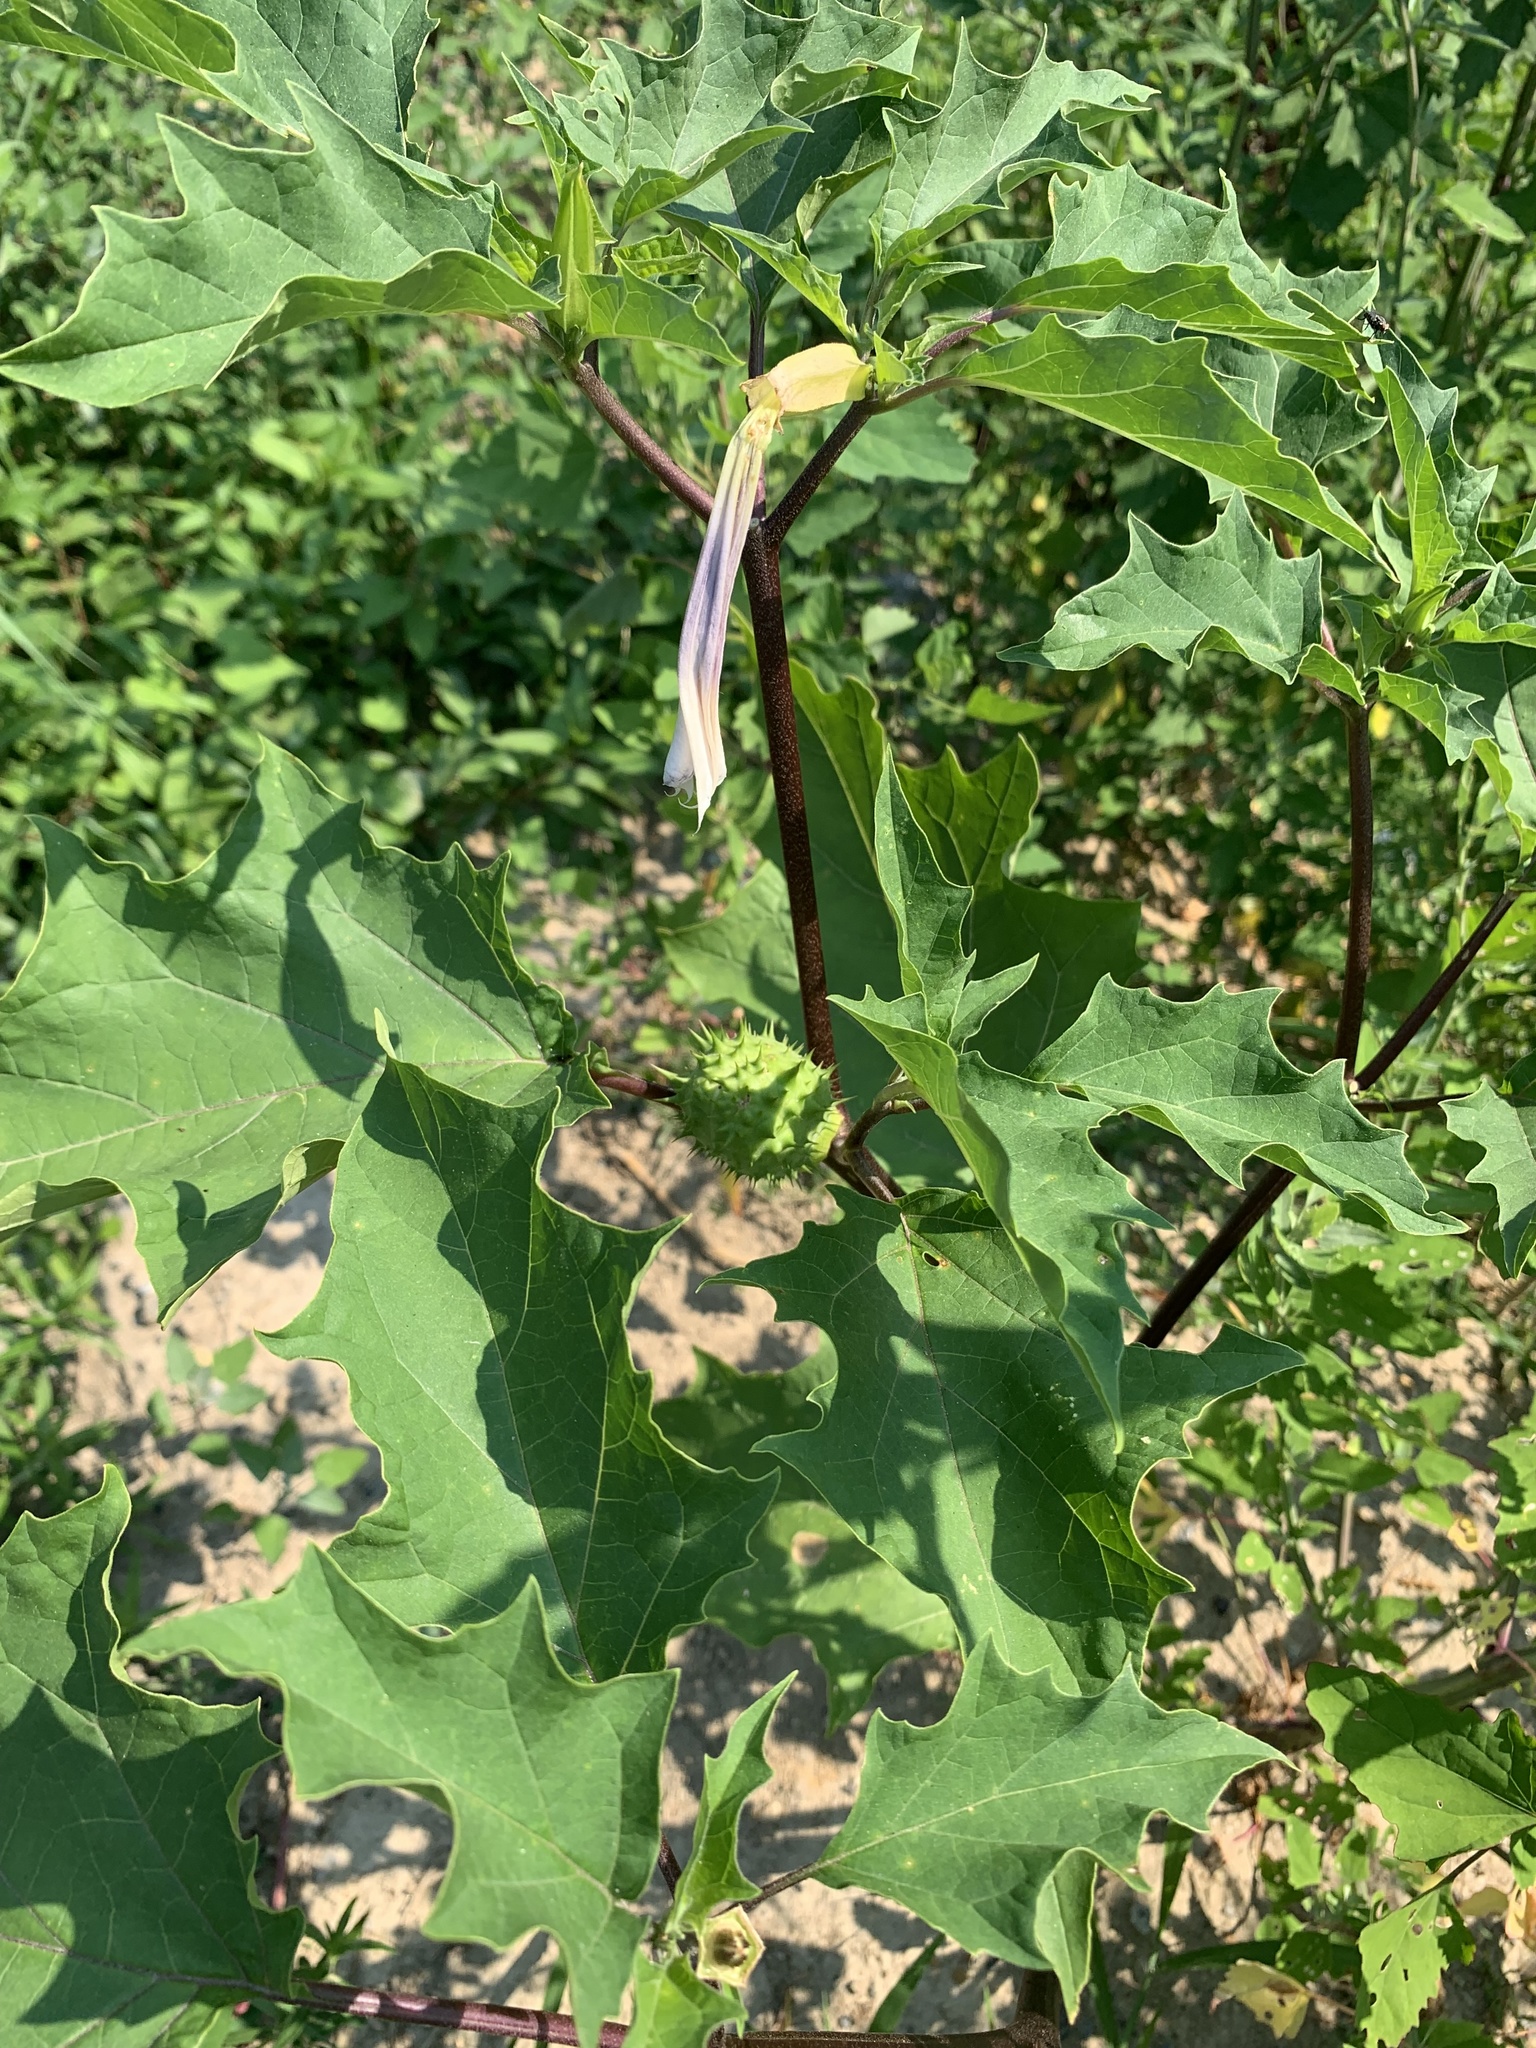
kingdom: Plantae
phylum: Tracheophyta
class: Magnoliopsida
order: Solanales
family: Solanaceae
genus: Datura
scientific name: Datura stramonium
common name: Thorn-apple
